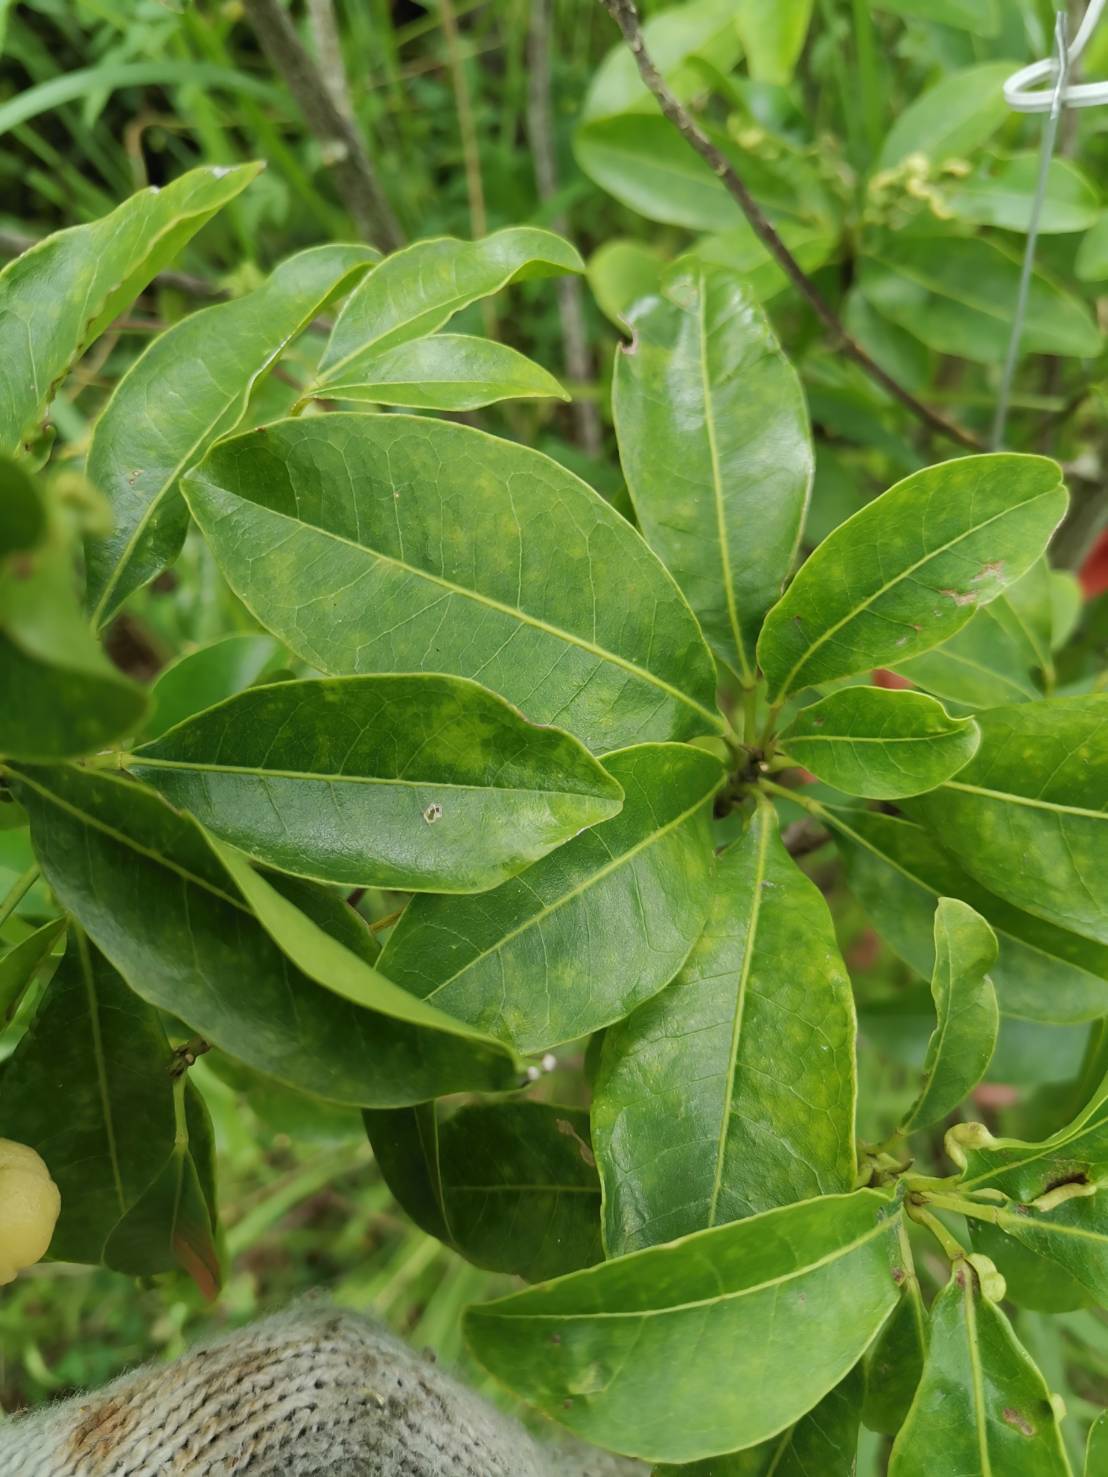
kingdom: Plantae
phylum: Tracheophyta
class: Magnoliopsida
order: Sapindales
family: Rutaceae
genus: Acronychia
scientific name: Acronychia pedunculata
